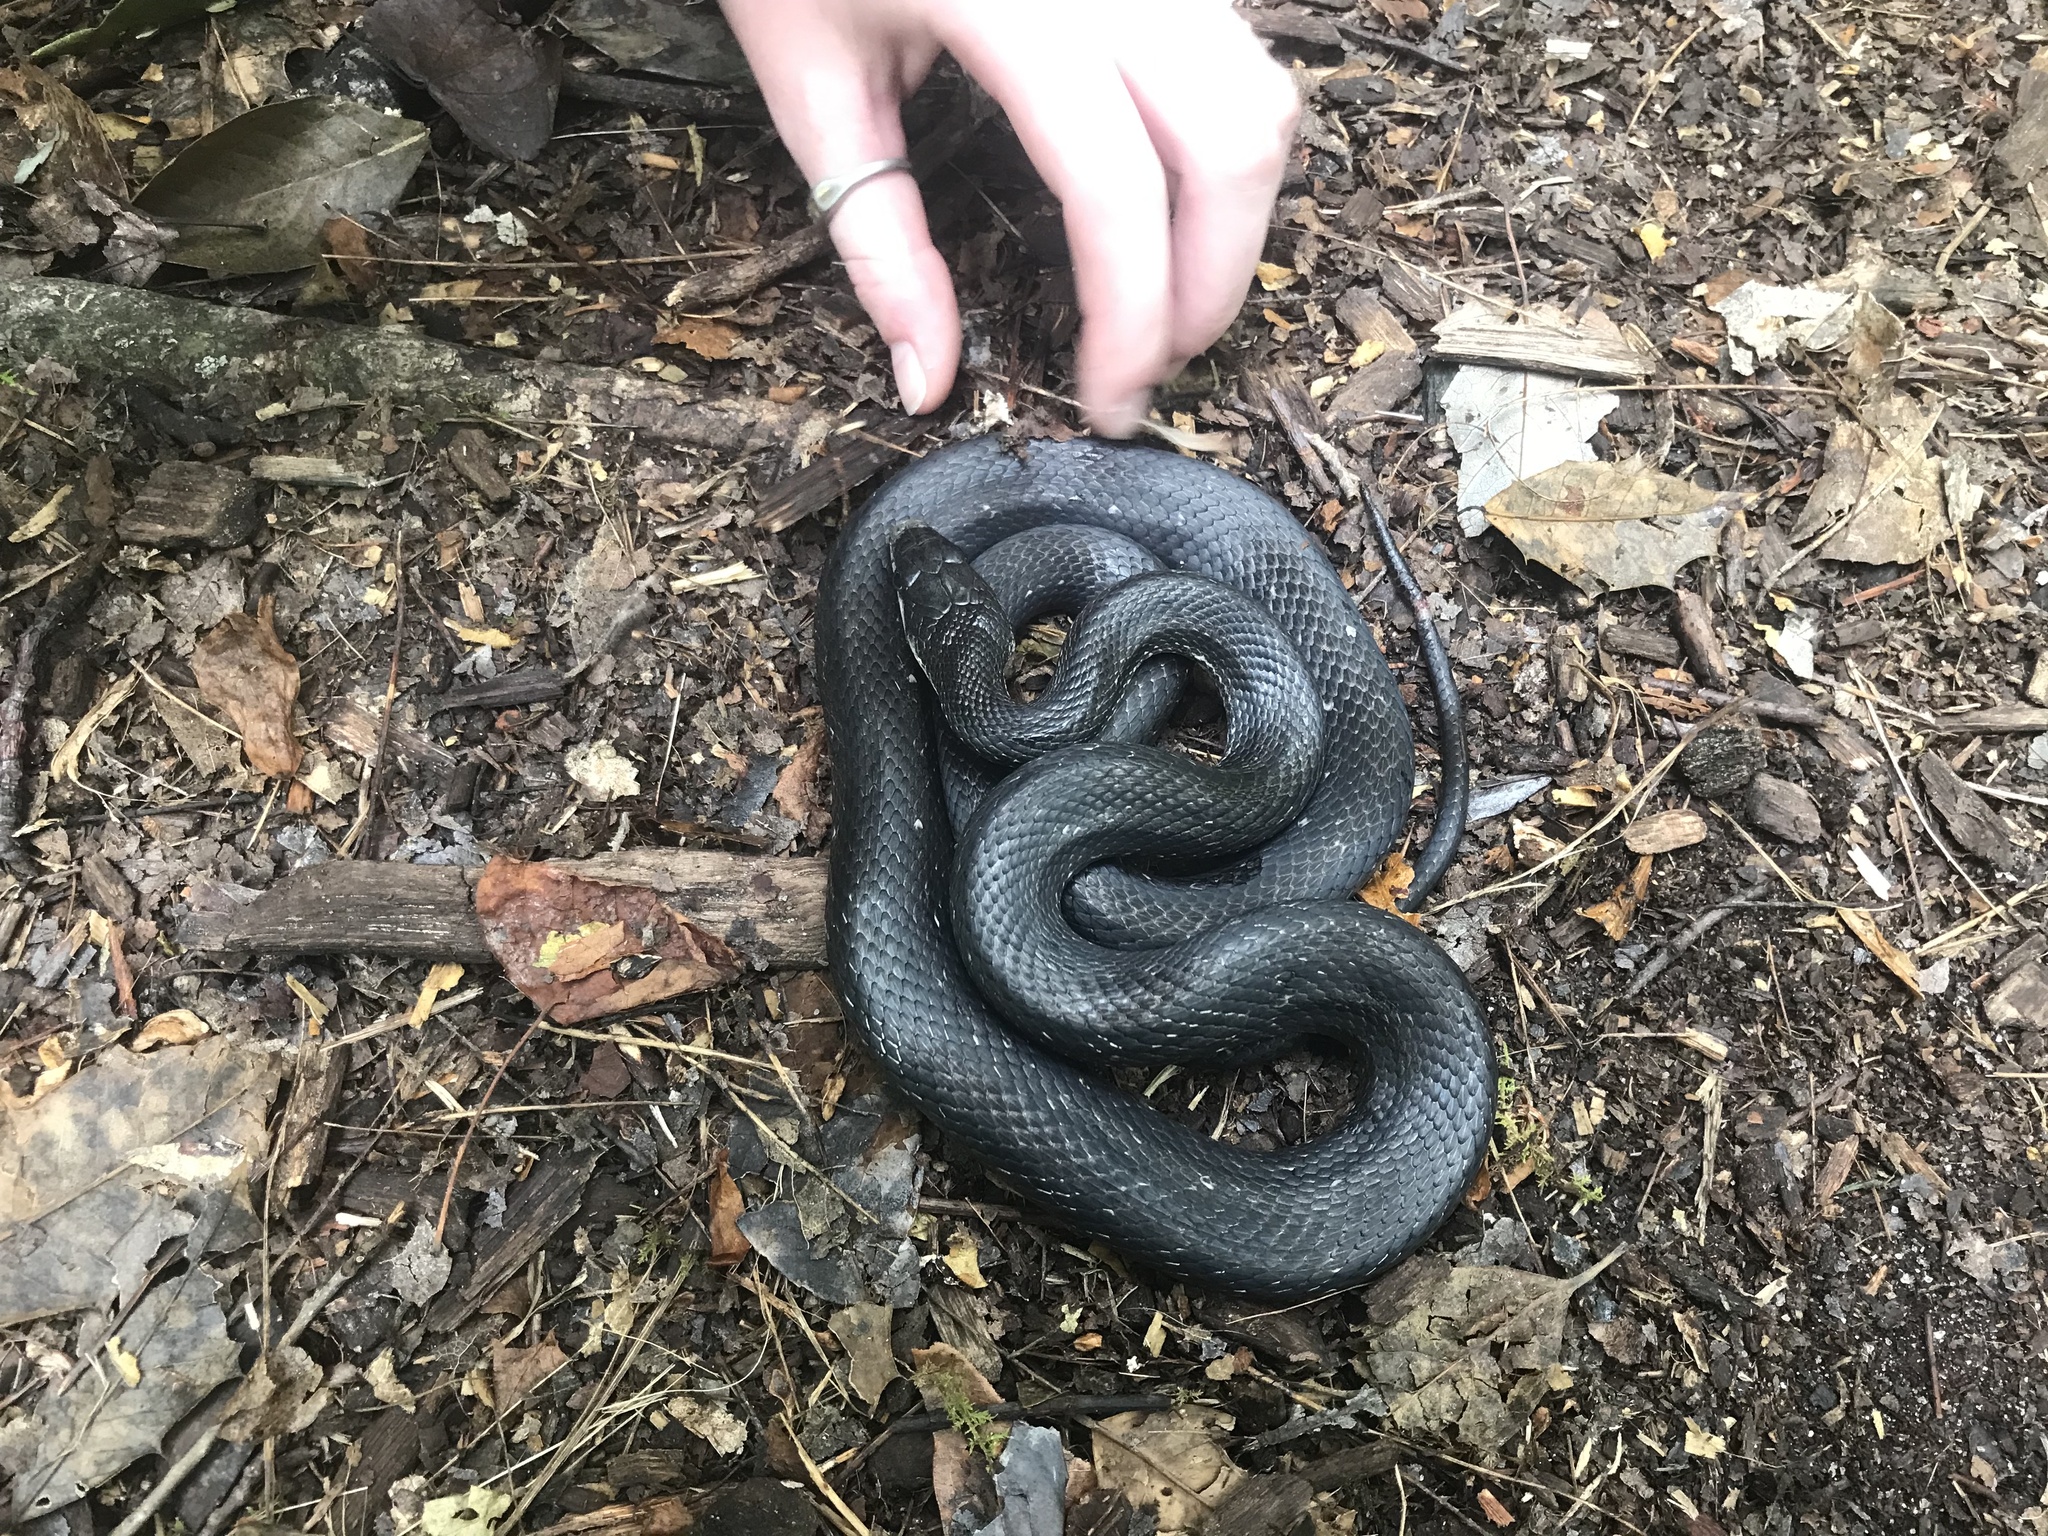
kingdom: Animalia
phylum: Chordata
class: Squamata
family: Colubridae
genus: Pantherophis
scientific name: Pantherophis alleghaniensis
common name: Eastern rat snake
